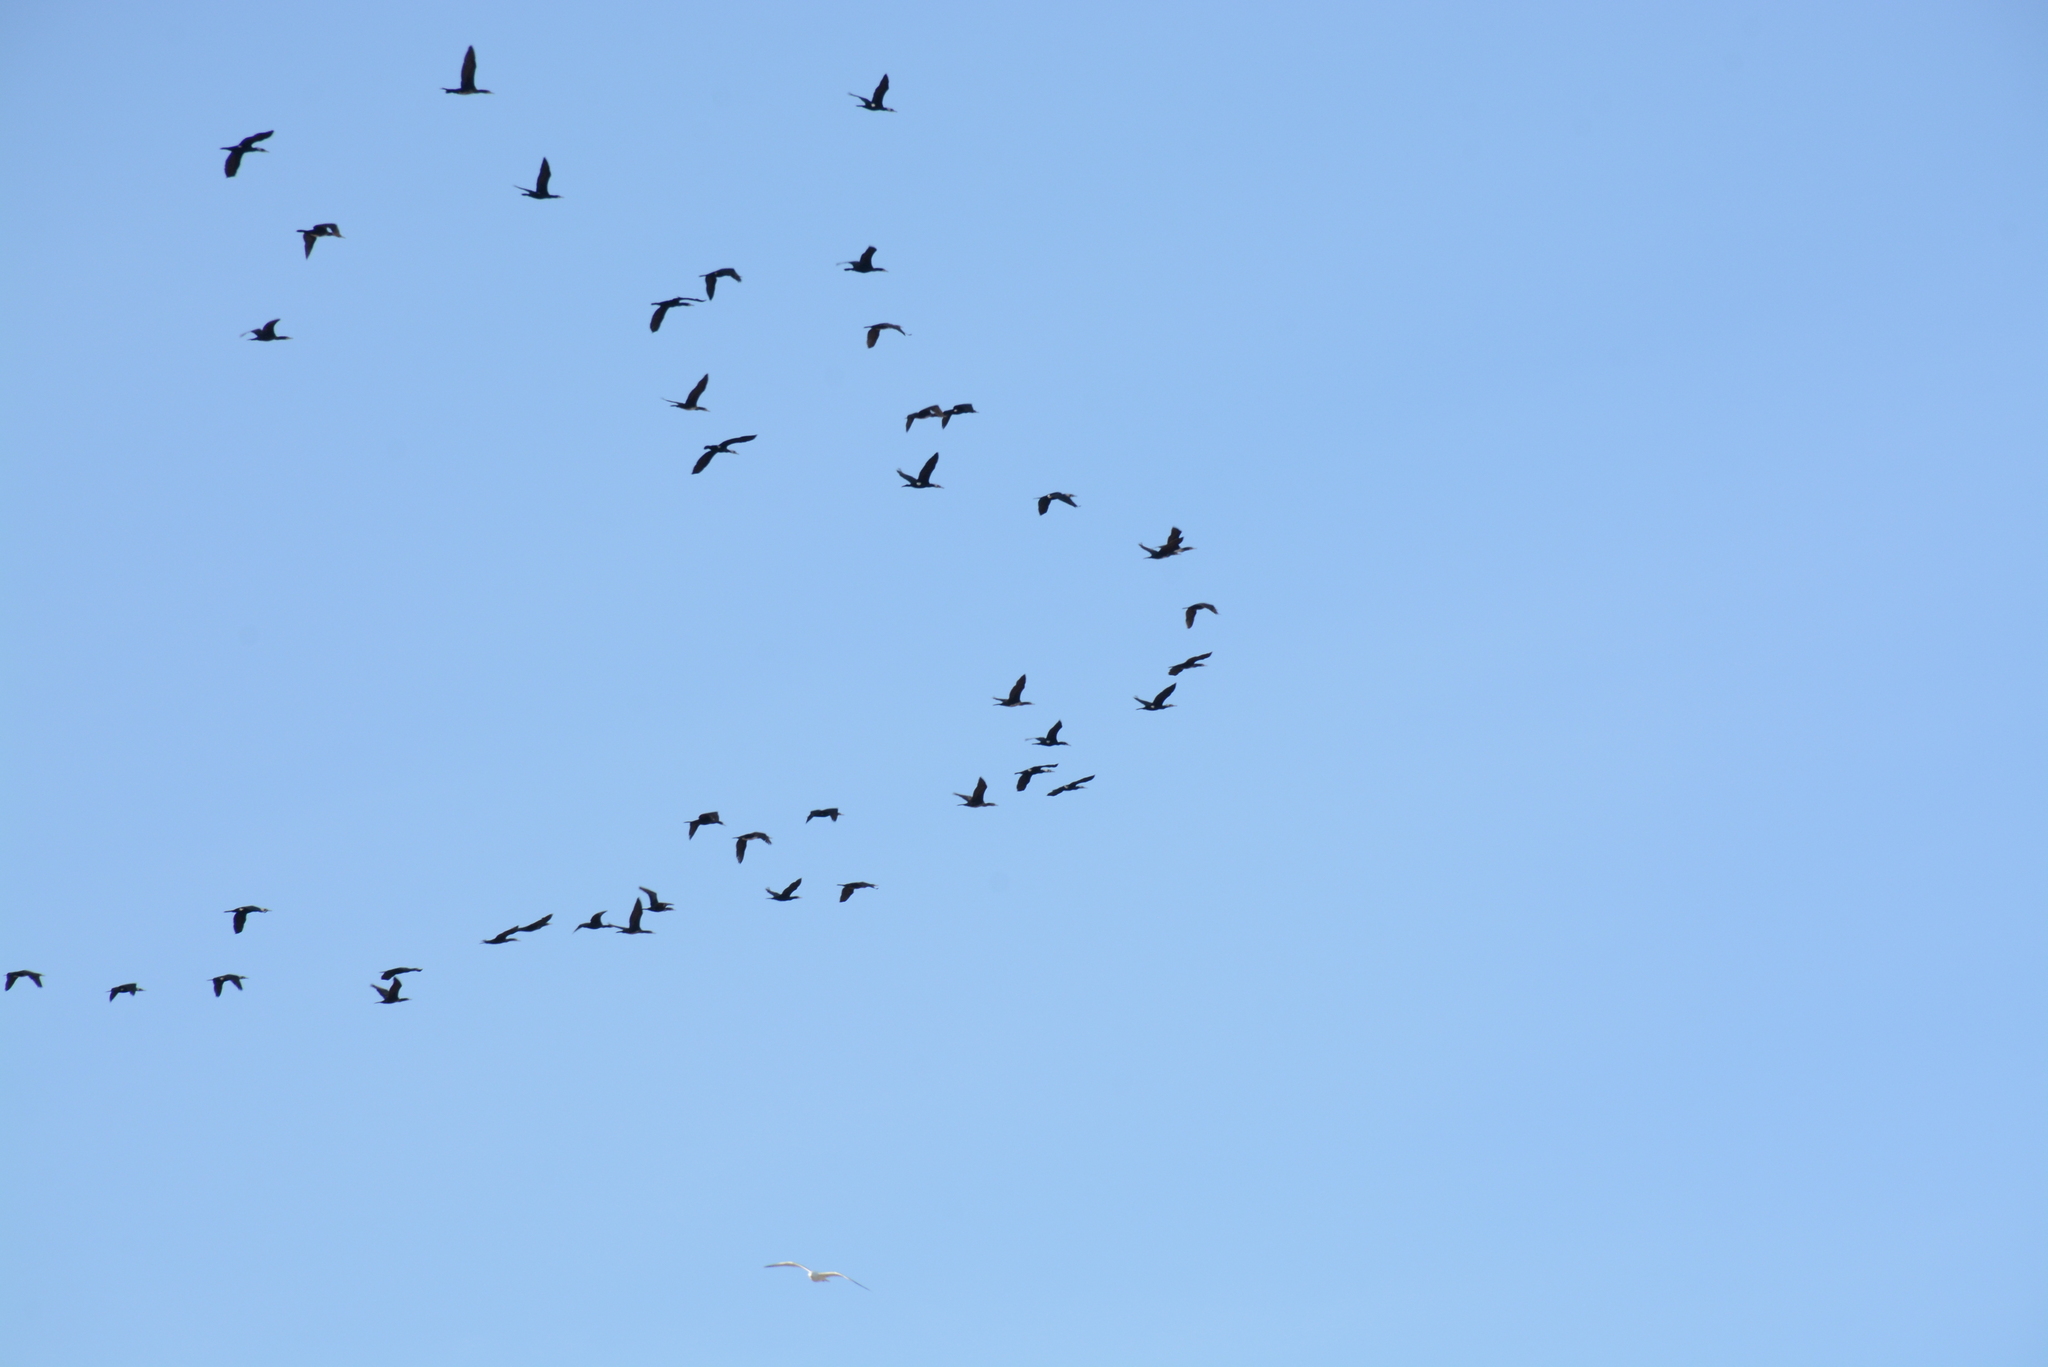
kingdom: Animalia
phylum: Chordata
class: Aves
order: Suliformes
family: Phalacrocoracidae
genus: Phalacrocorax
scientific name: Phalacrocorax carbo
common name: Great cormorant
